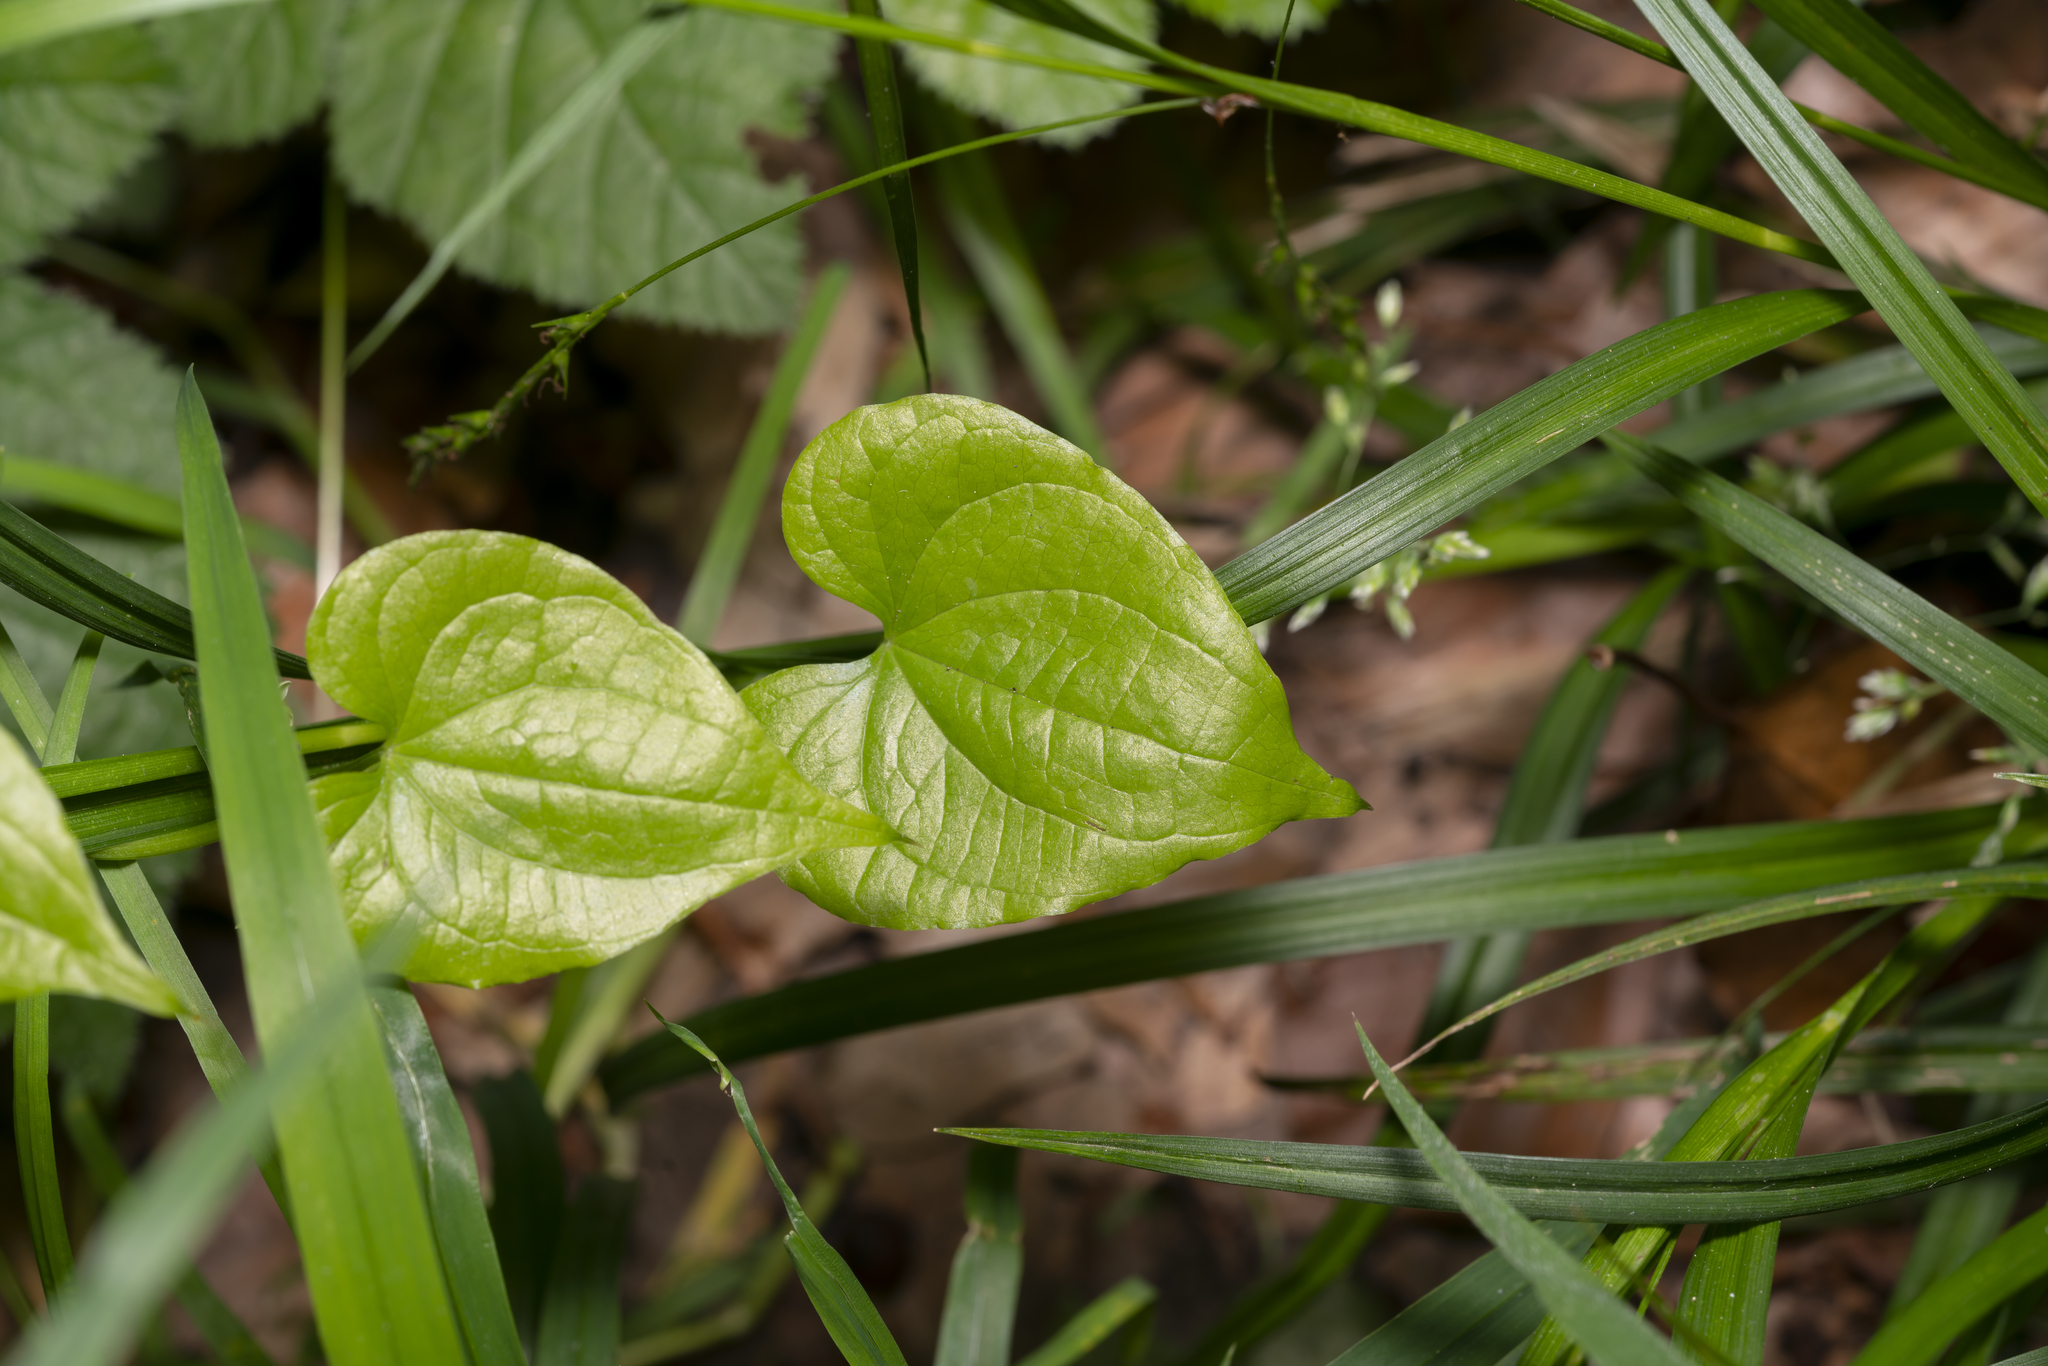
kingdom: Plantae
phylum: Tracheophyta
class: Liliopsida
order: Dioscoreales
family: Dioscoreaceae
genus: Dioscorea
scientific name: Dioscorea communis
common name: Black-bindweed
